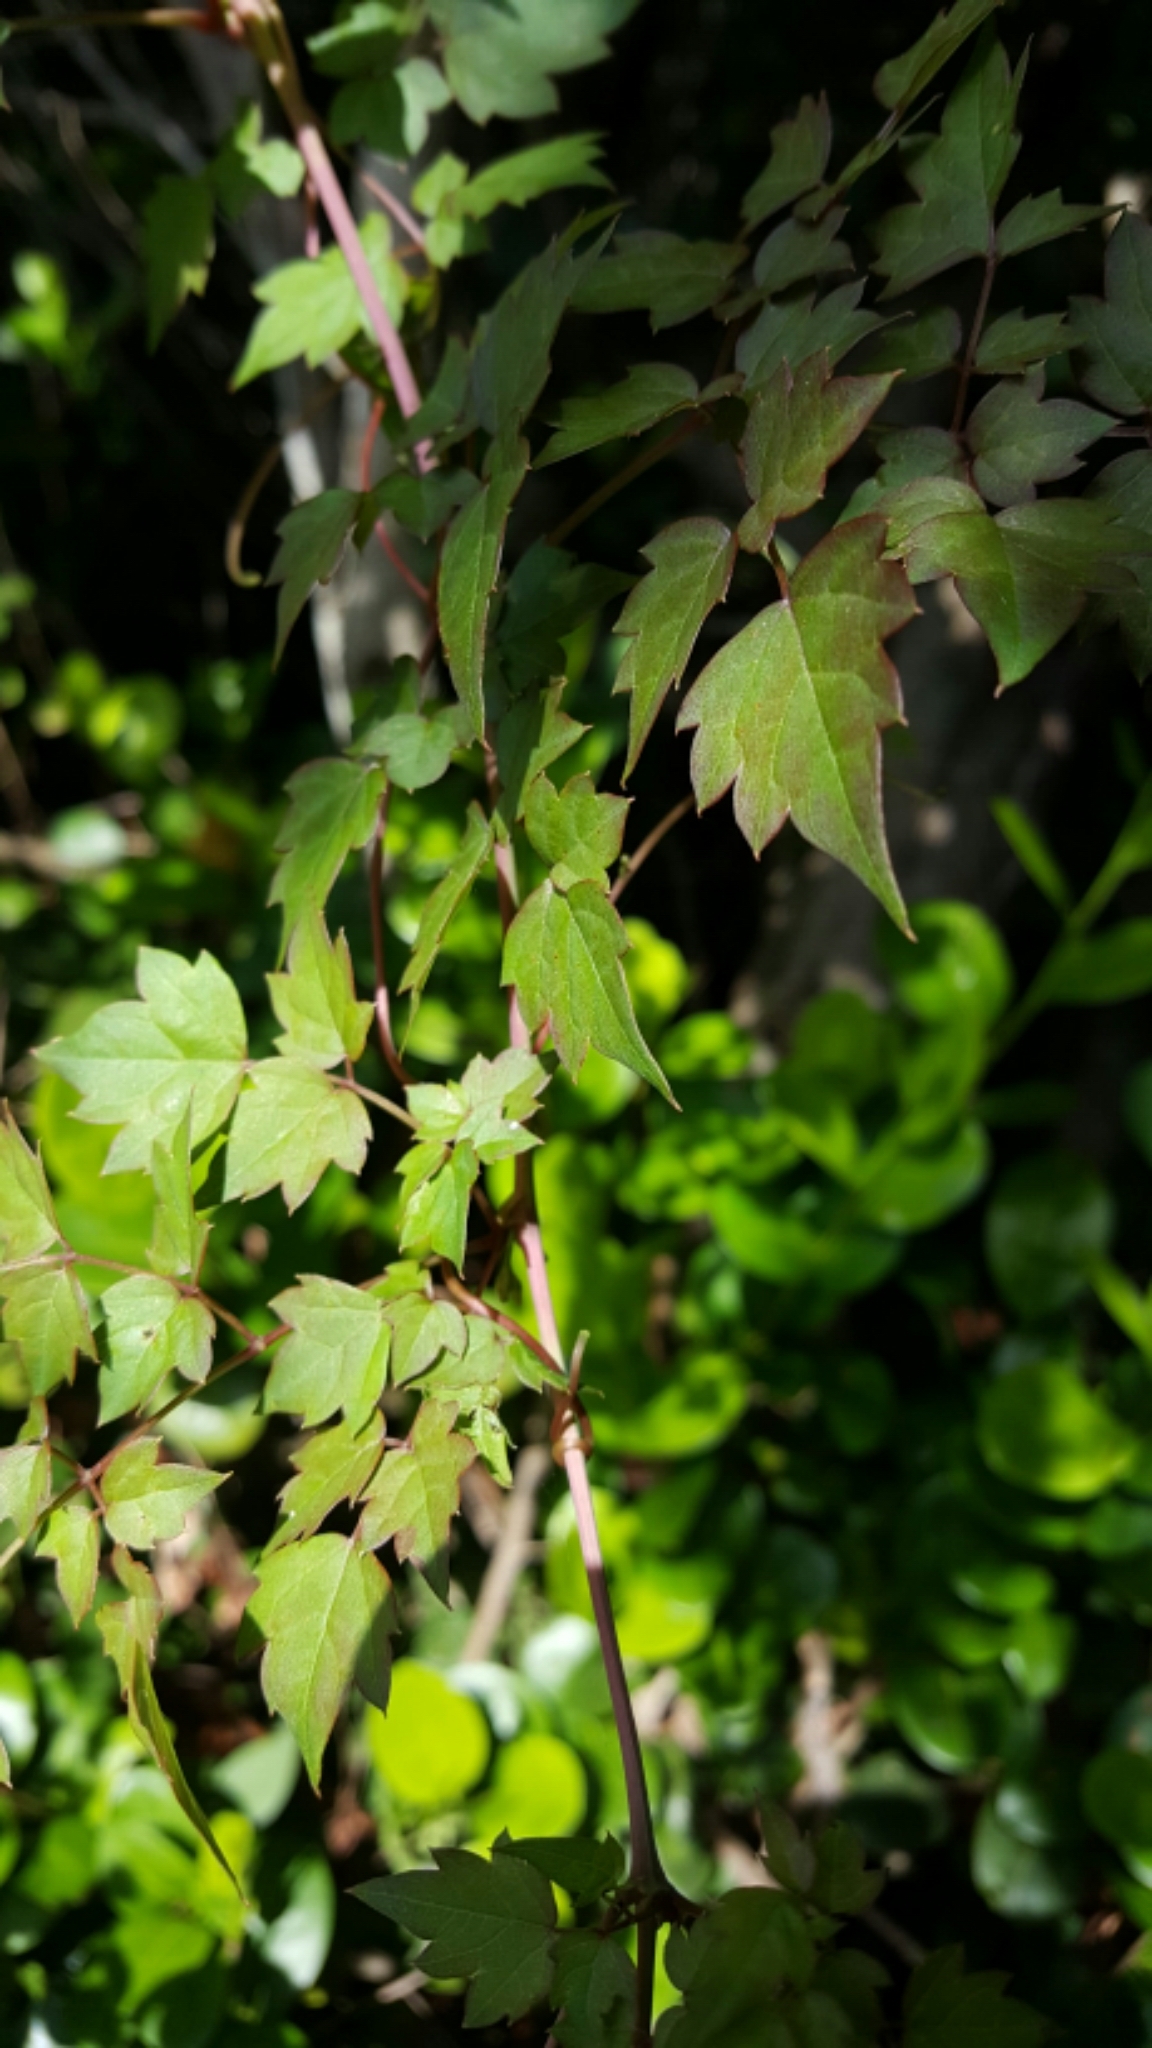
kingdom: Plantae
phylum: Tracheophyta
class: Magnoliopsida
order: Vitales
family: Vitaceae
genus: Nekemias
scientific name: Nekemias arborea
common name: Peppervine
